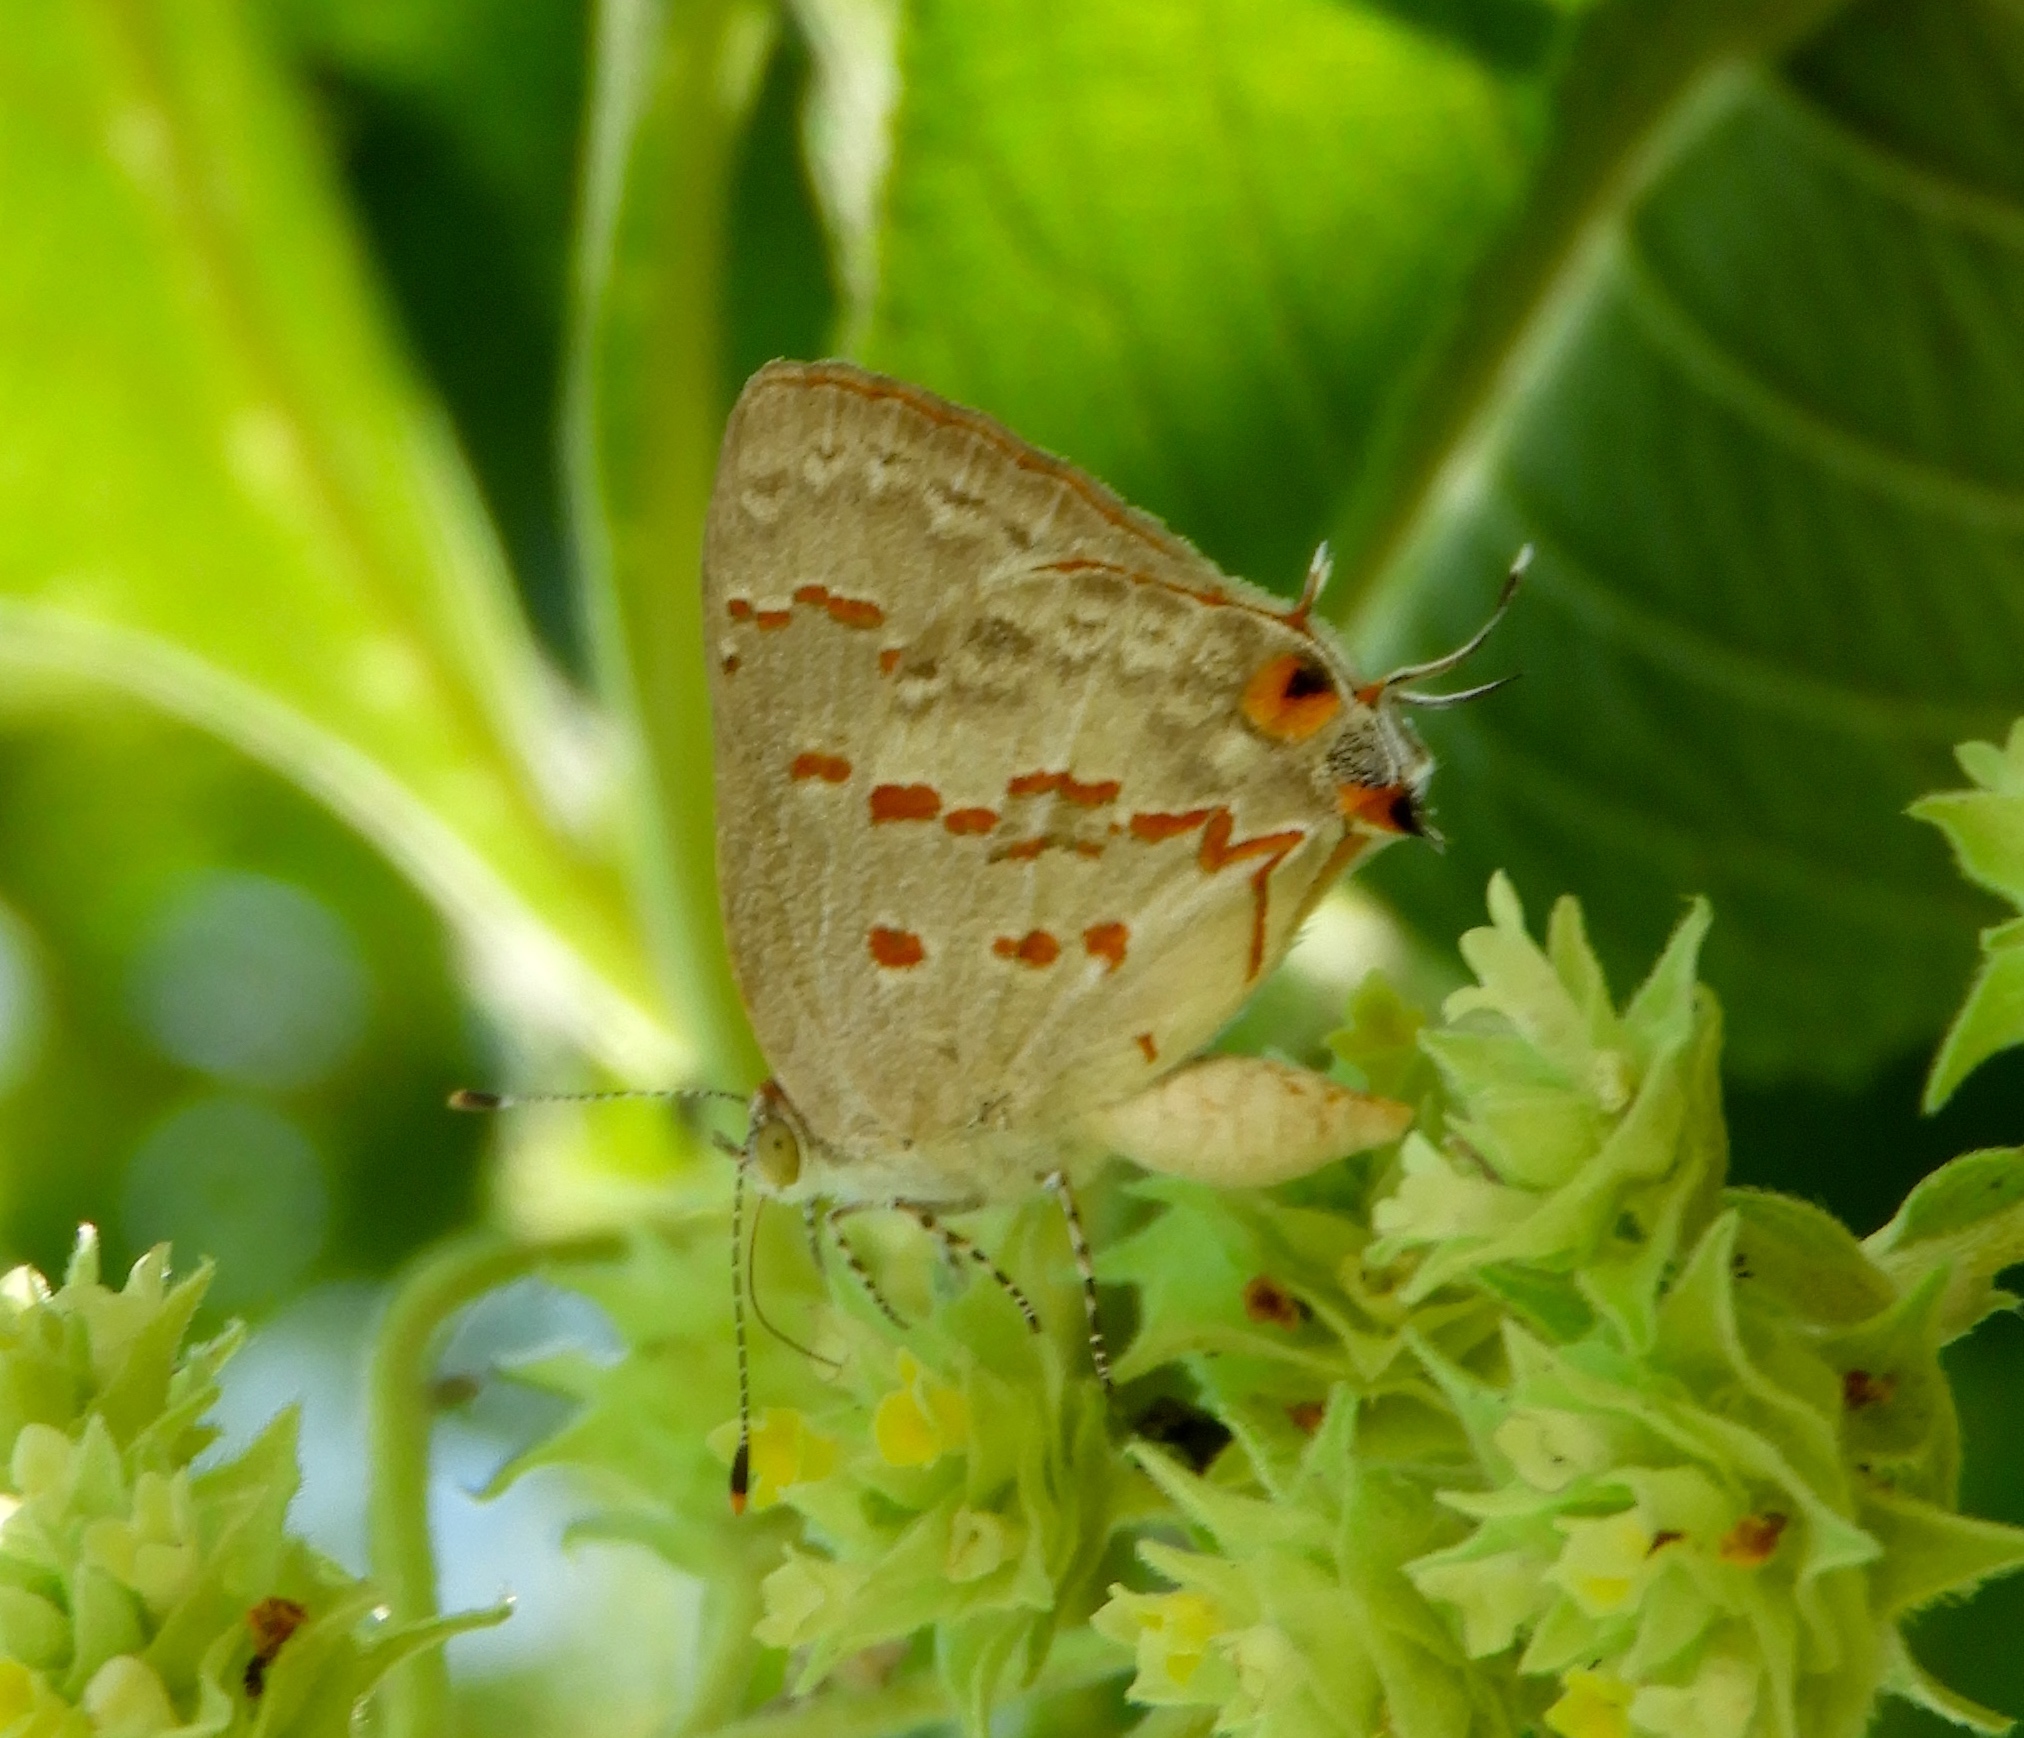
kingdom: Animalia
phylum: Arthropoda
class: Insecta
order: Lepidoptera
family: Lycaenidae
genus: Ministrymon
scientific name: Ministrymon
